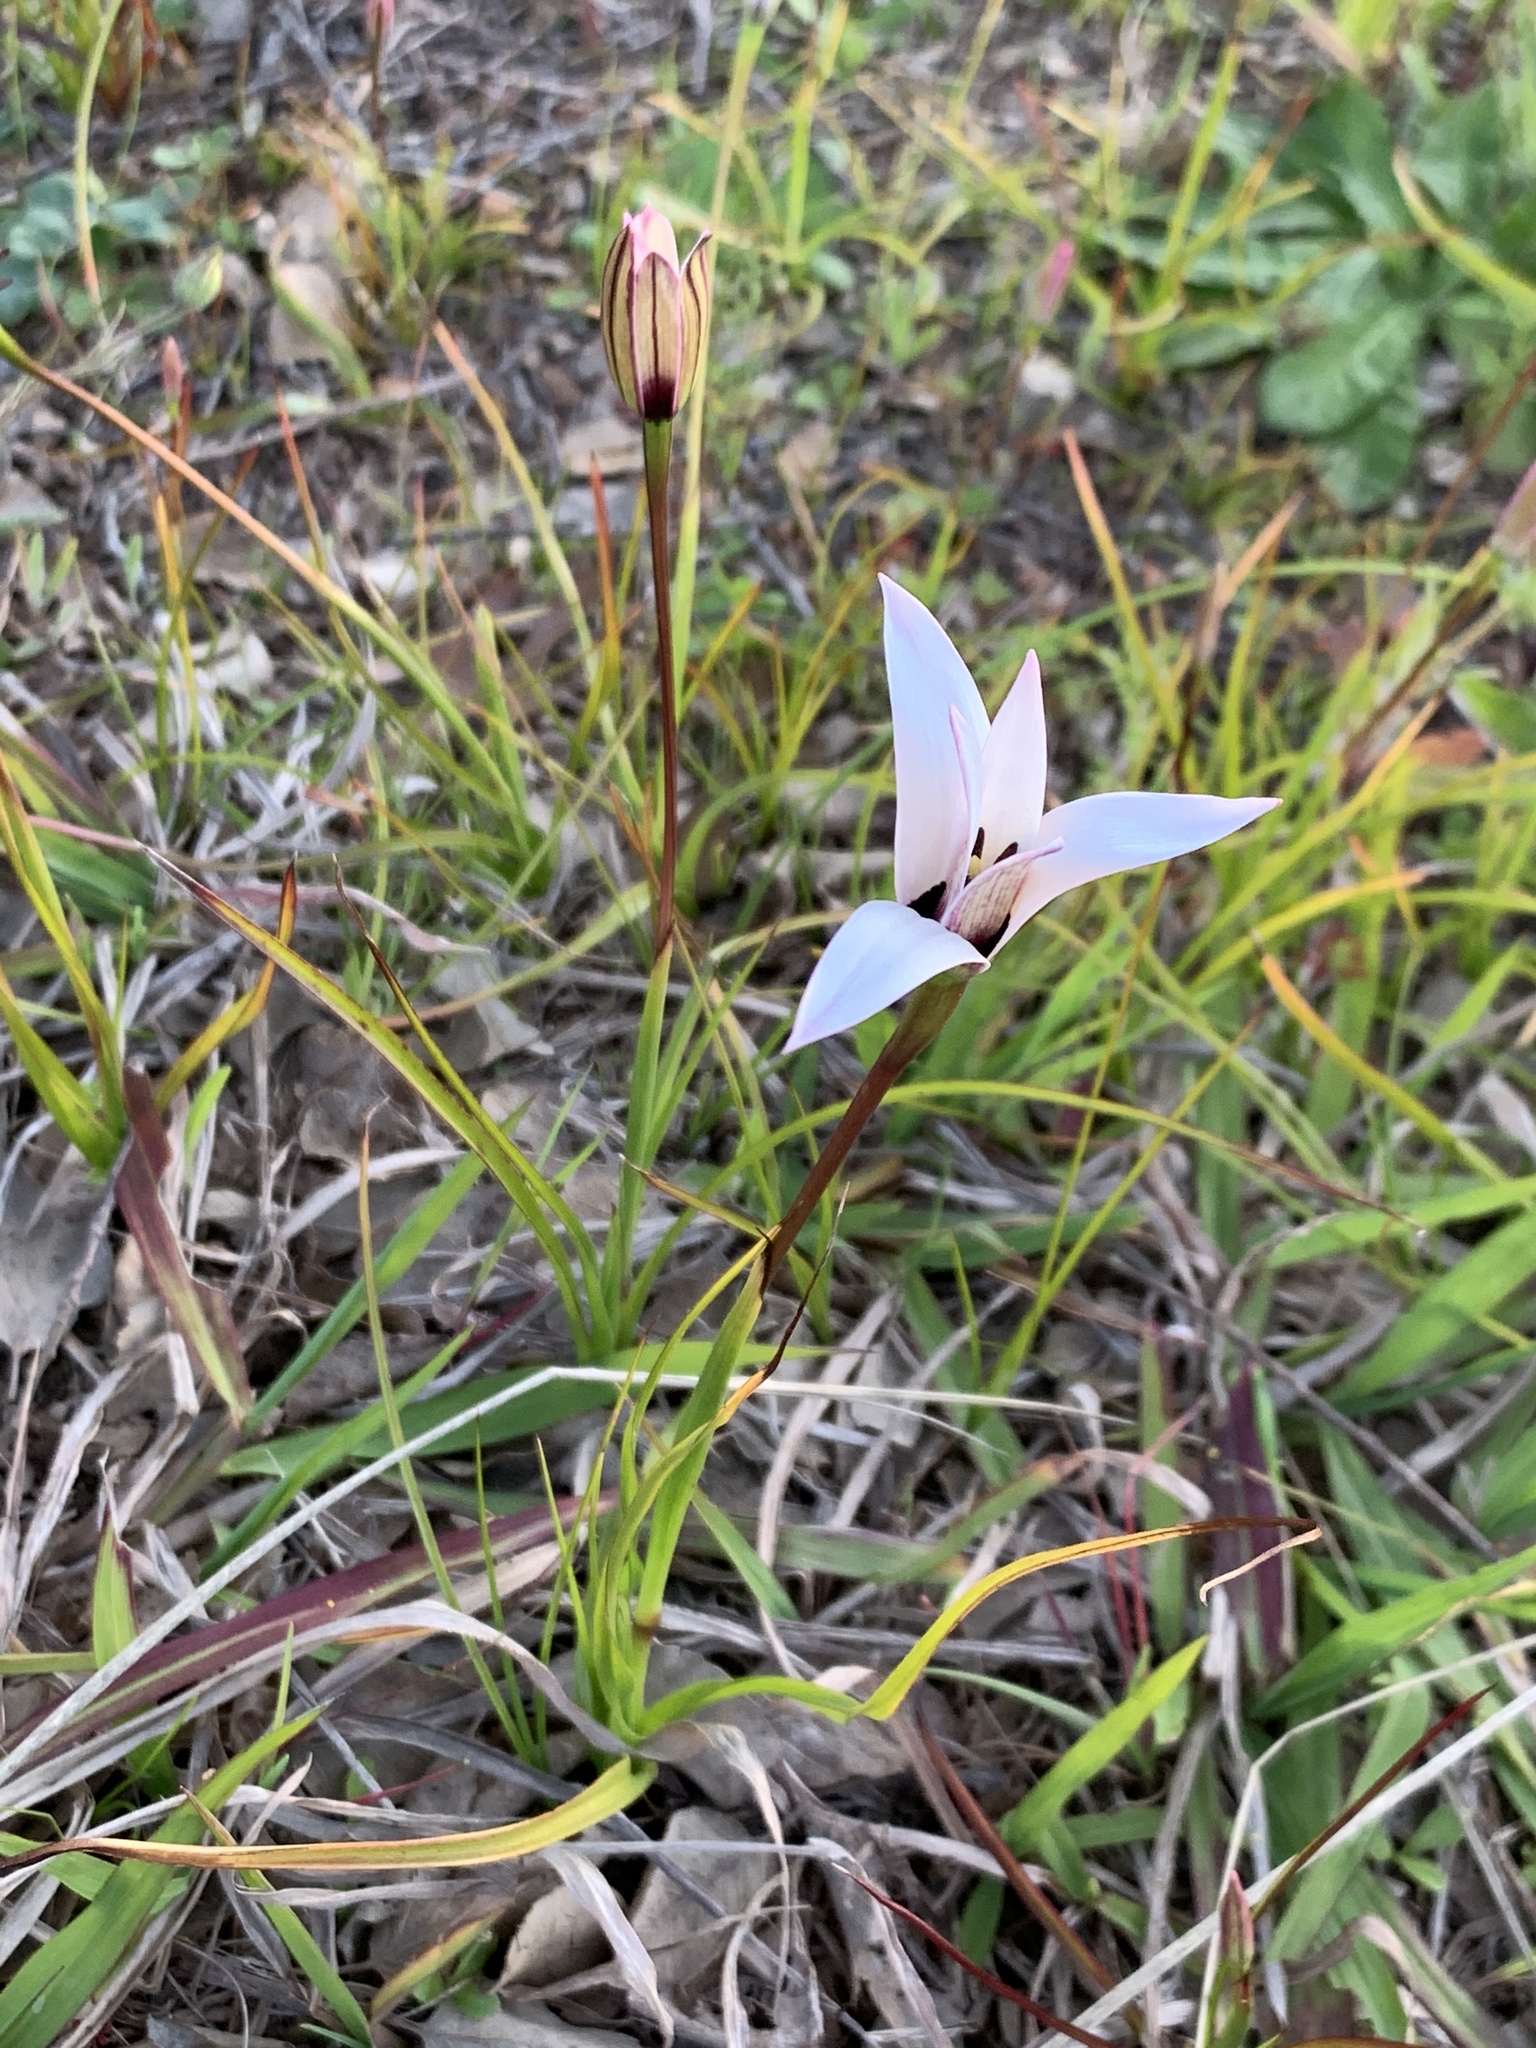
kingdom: Plantae
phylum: Tracheophyta
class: Liliopsida
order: Asparagales
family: Hypoxidaceae
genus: Pauridia
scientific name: Pauridia capensis
